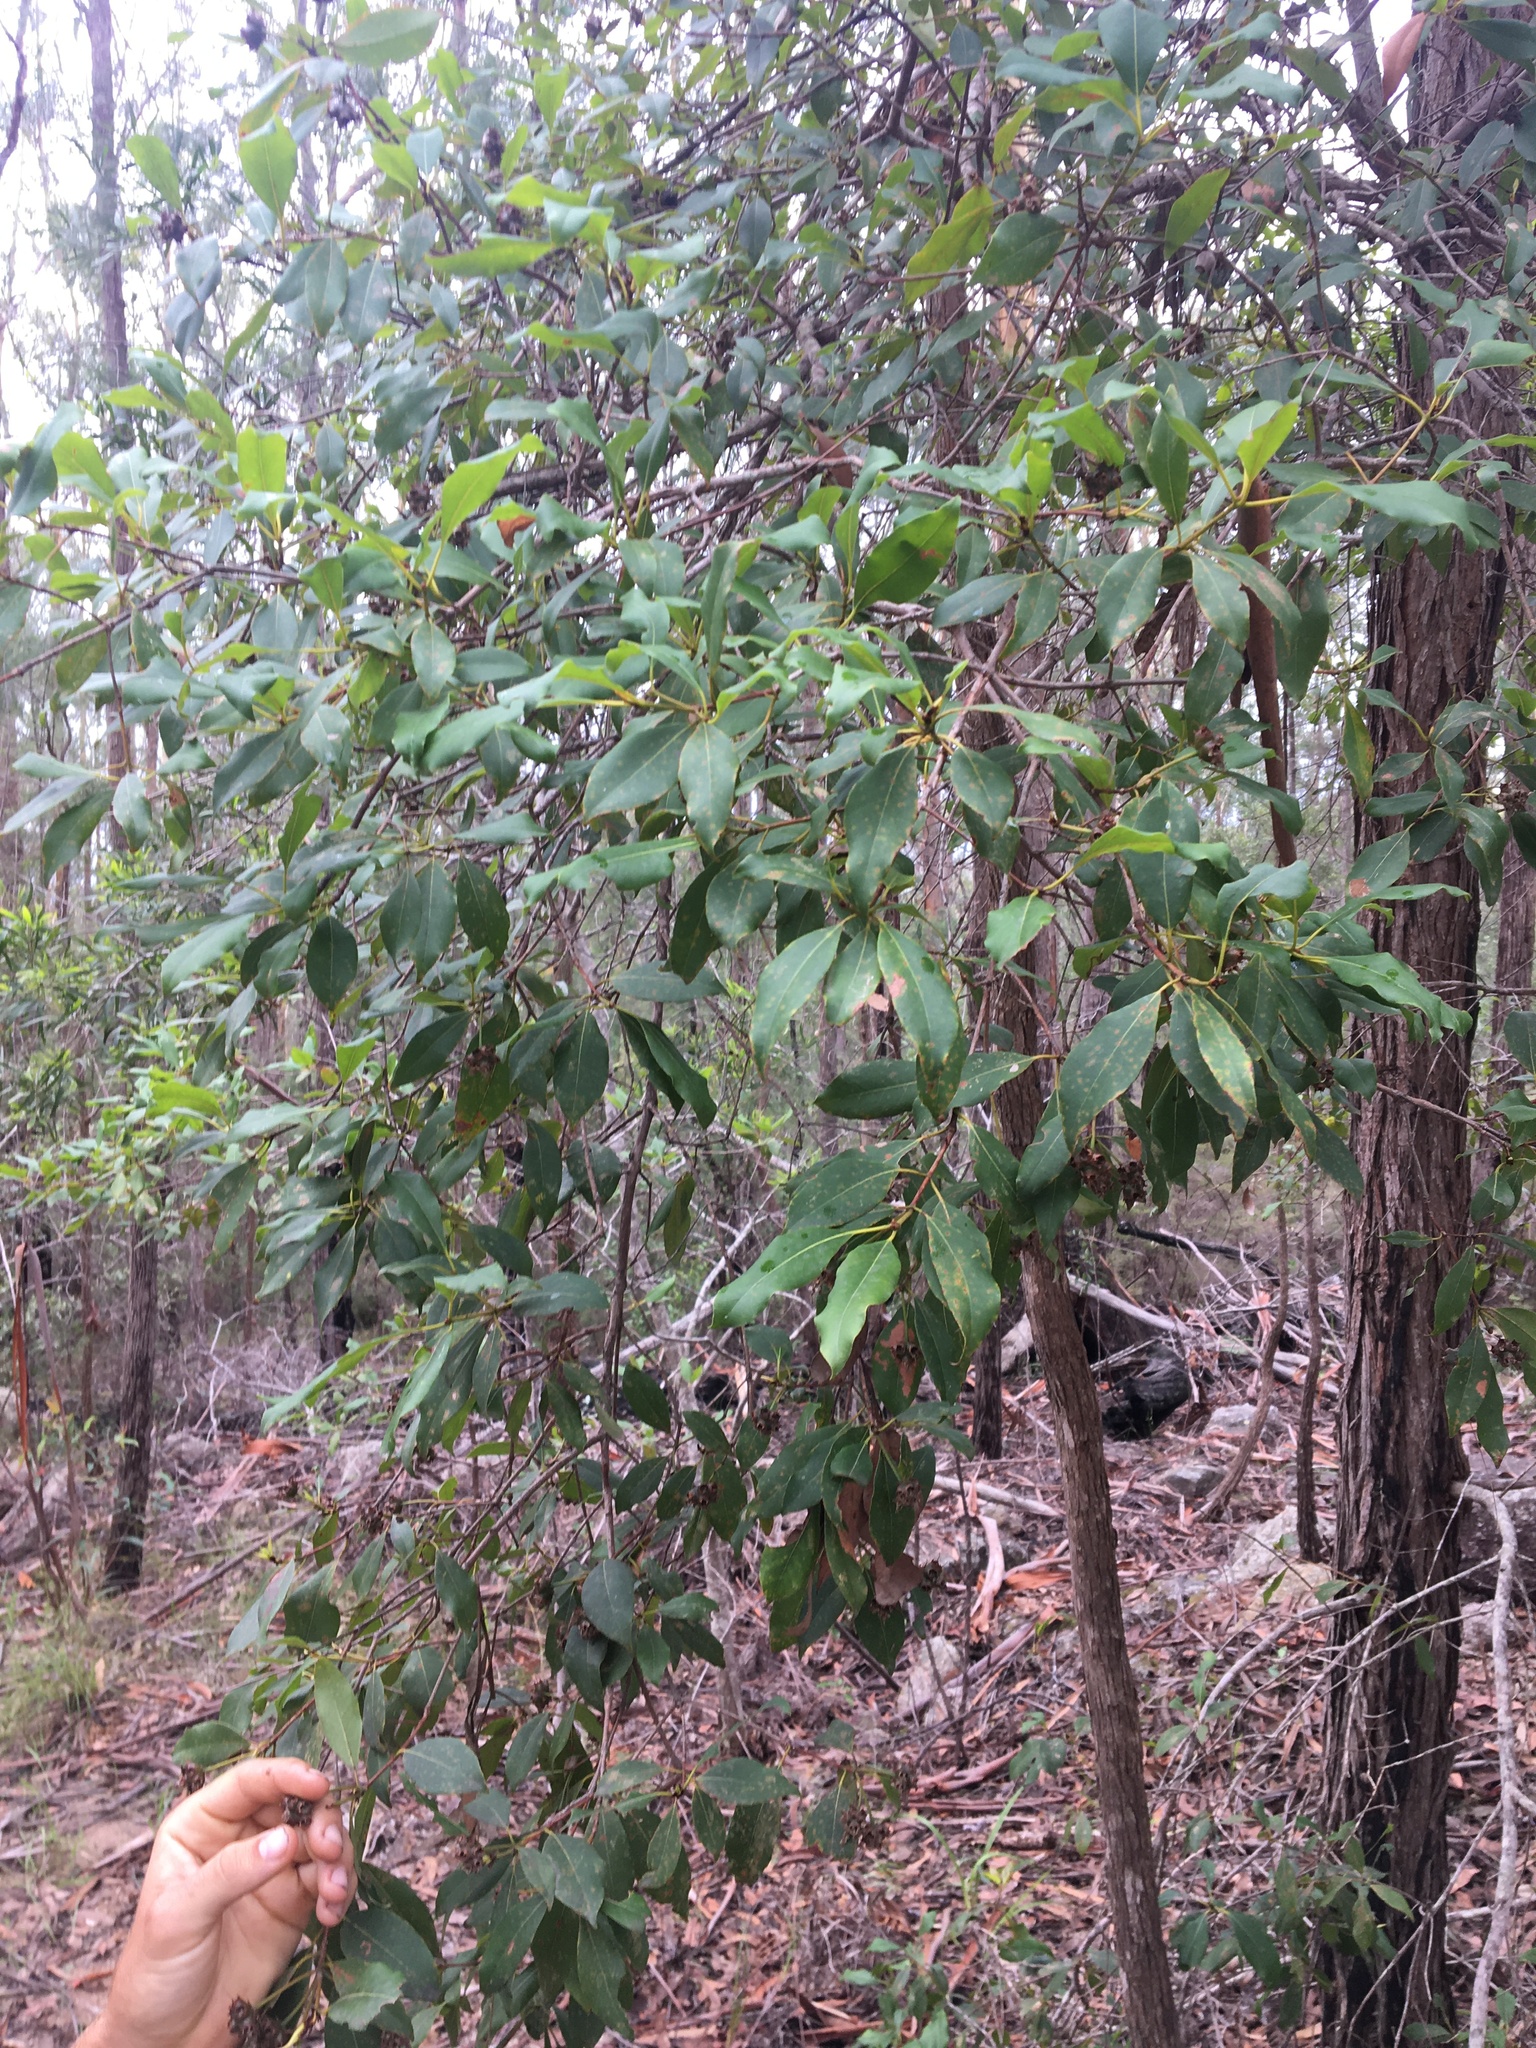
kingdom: Plantae
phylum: Tracheophyta
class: Magnoliopsida
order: Myrtales
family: Myrtaceae
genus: Syncarpia
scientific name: Syncarpia glomulifera
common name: Turpentine tree
